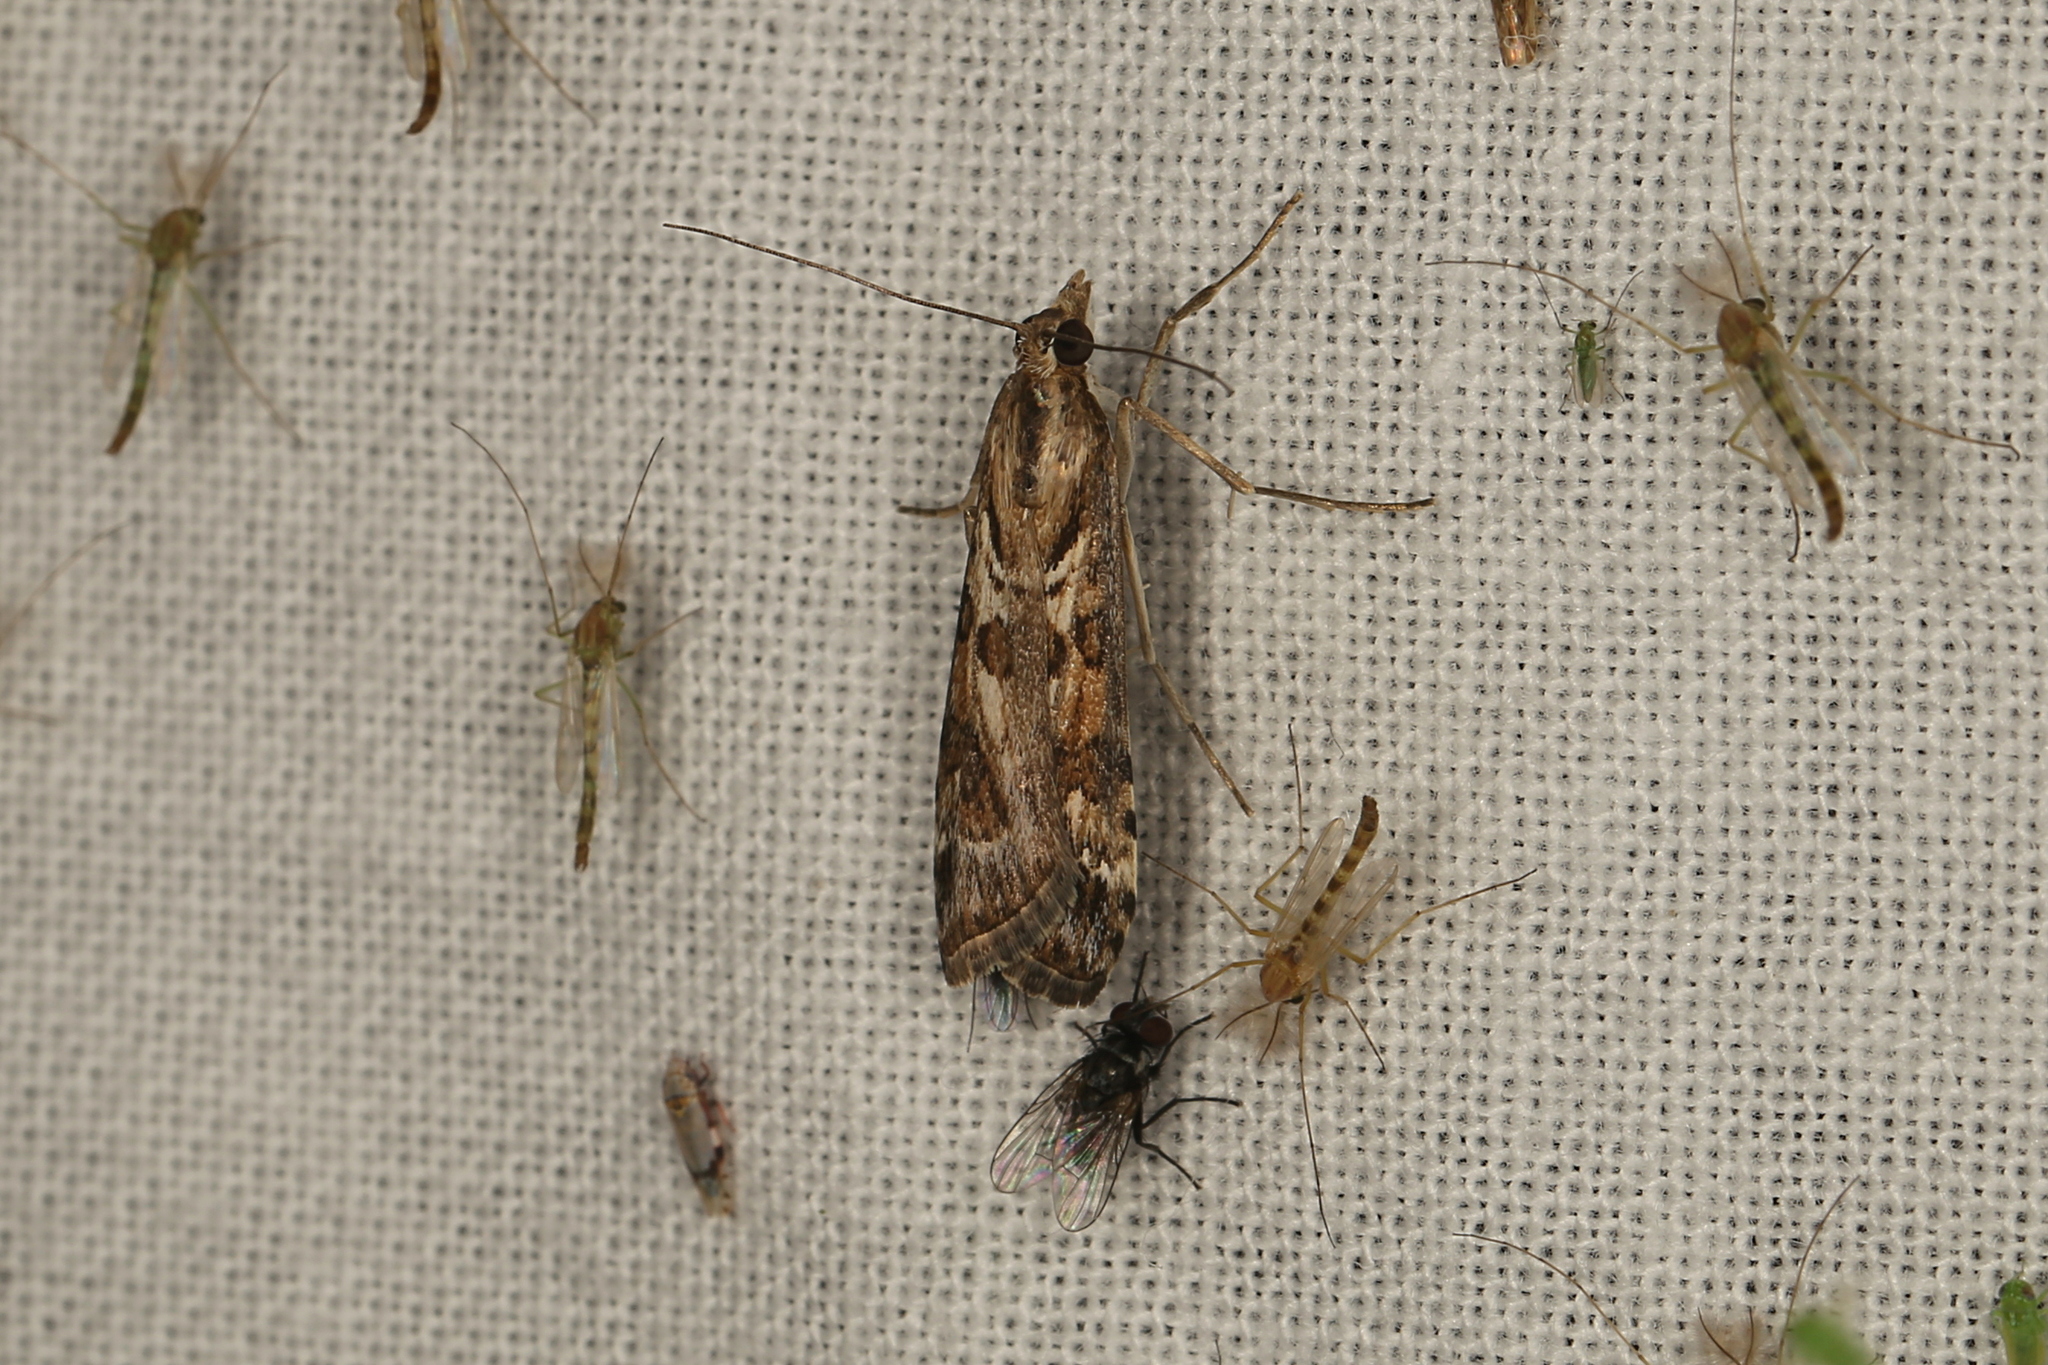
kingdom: Animalia
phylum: Arthropoda
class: Insecta
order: Lepidoptera
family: Crambidae
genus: Nomophila
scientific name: Nomophila corticalis
